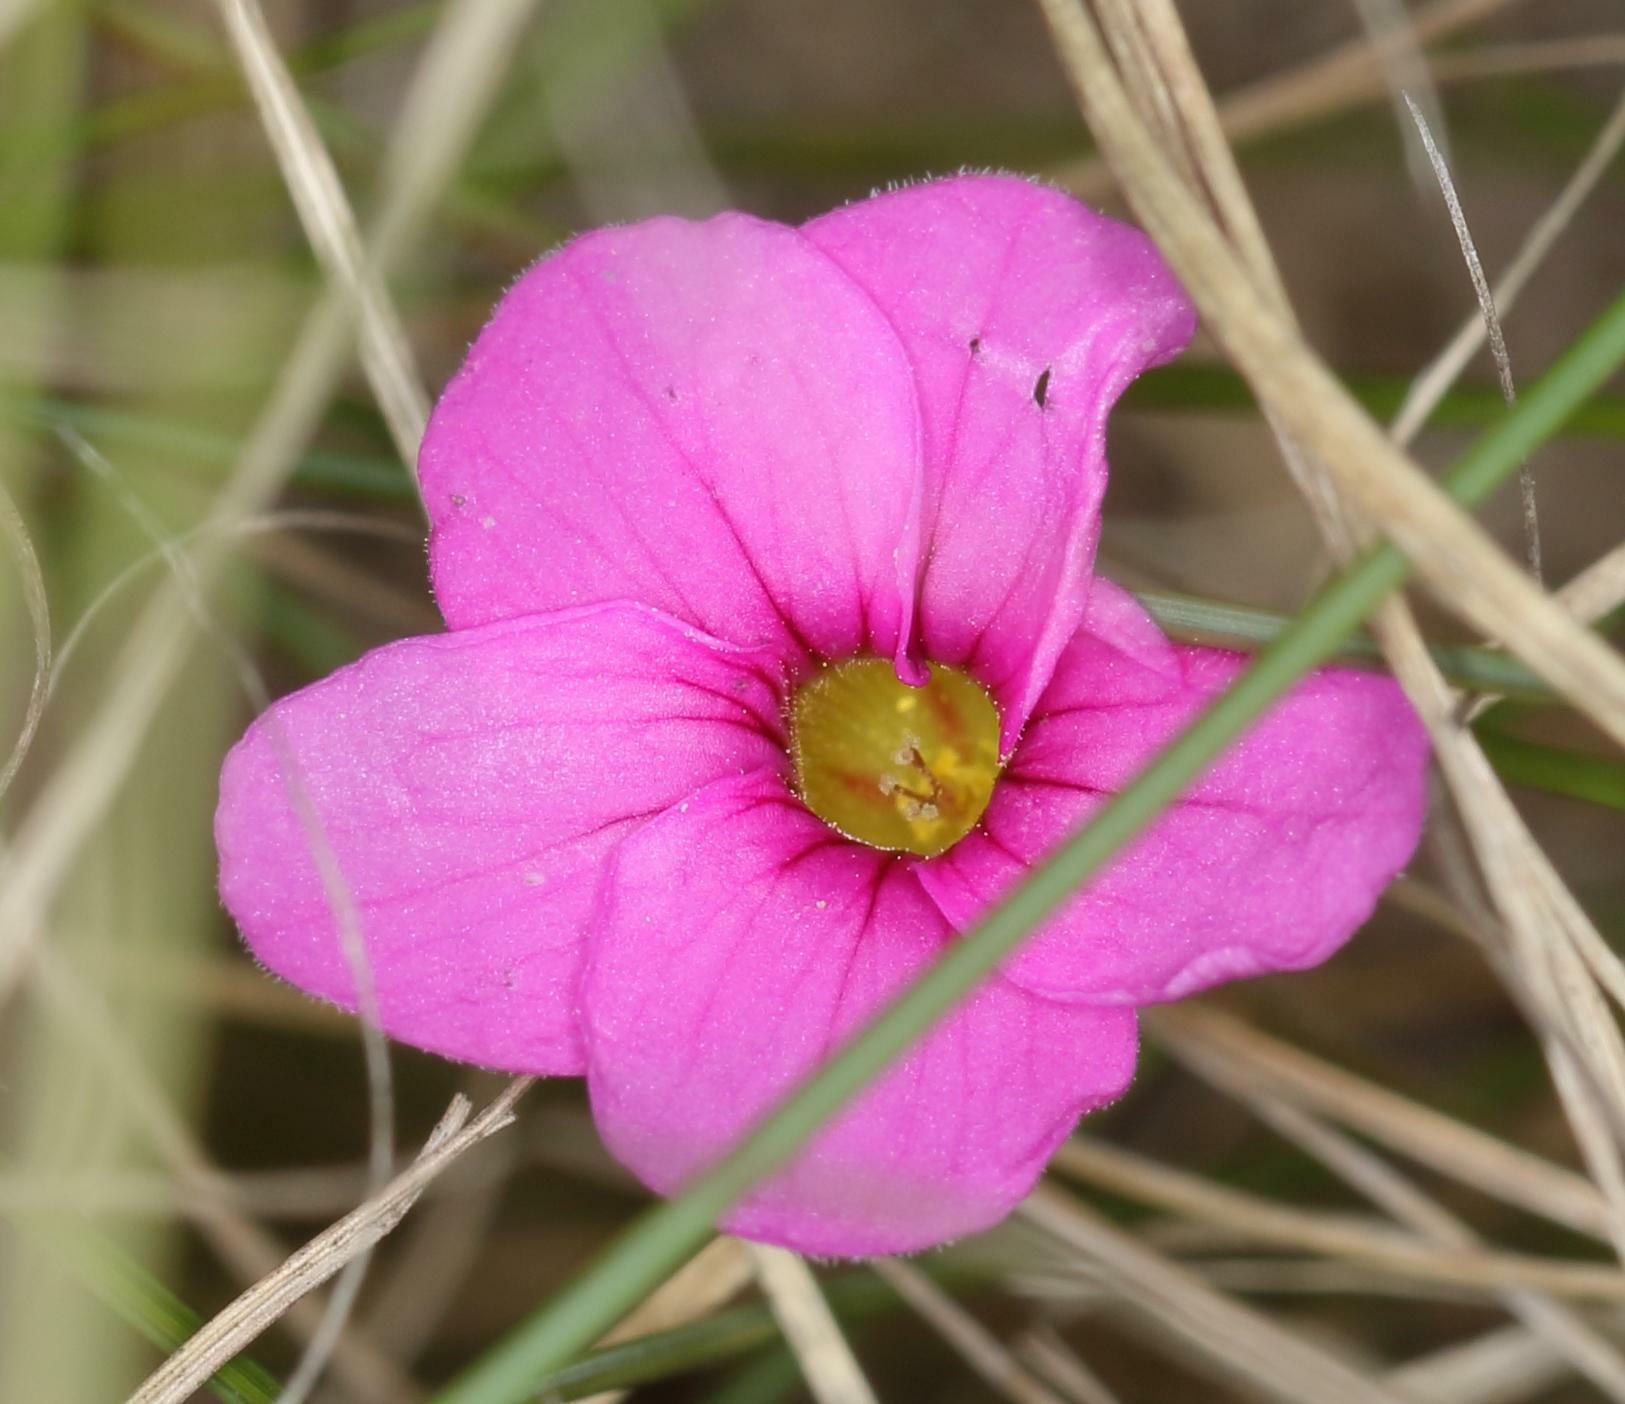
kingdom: Plantae
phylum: Tracheophyta
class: Magnoliopsida
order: Oxalidales
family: Oxalidaceae
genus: Oxalis
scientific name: Oxalis polyphylla
